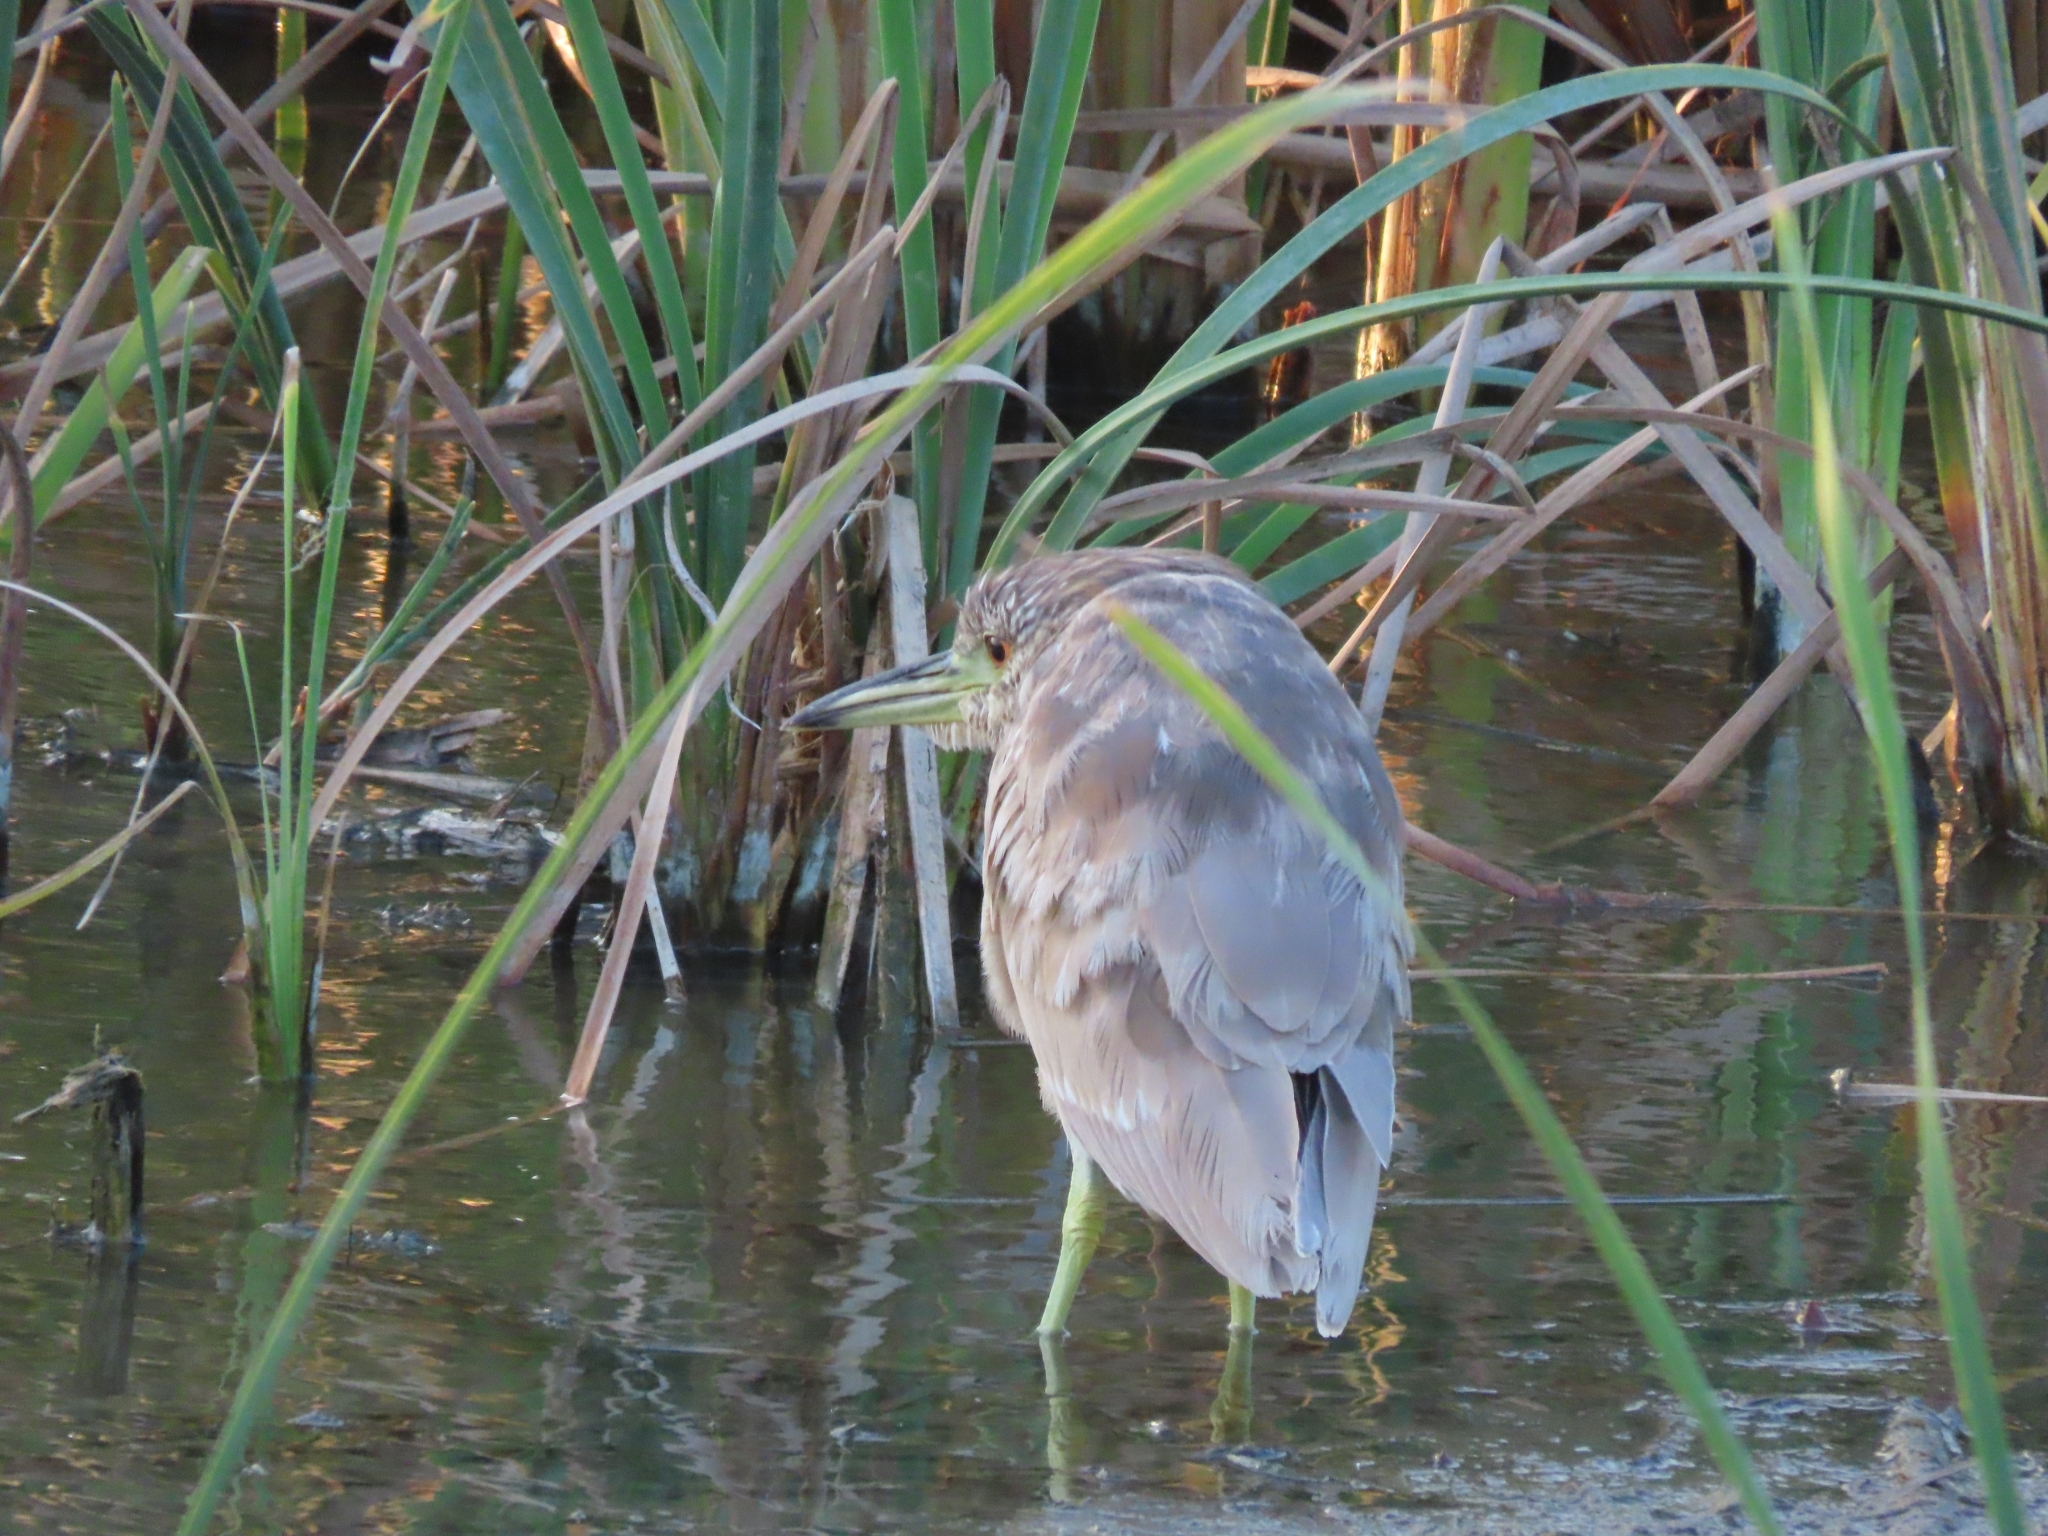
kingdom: Animalia
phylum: Chordata
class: Aves
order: Pelecaniformes
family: Ardeidae
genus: Nycticorax
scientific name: Nycticorax nycticorax
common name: Black-crowned night heron
